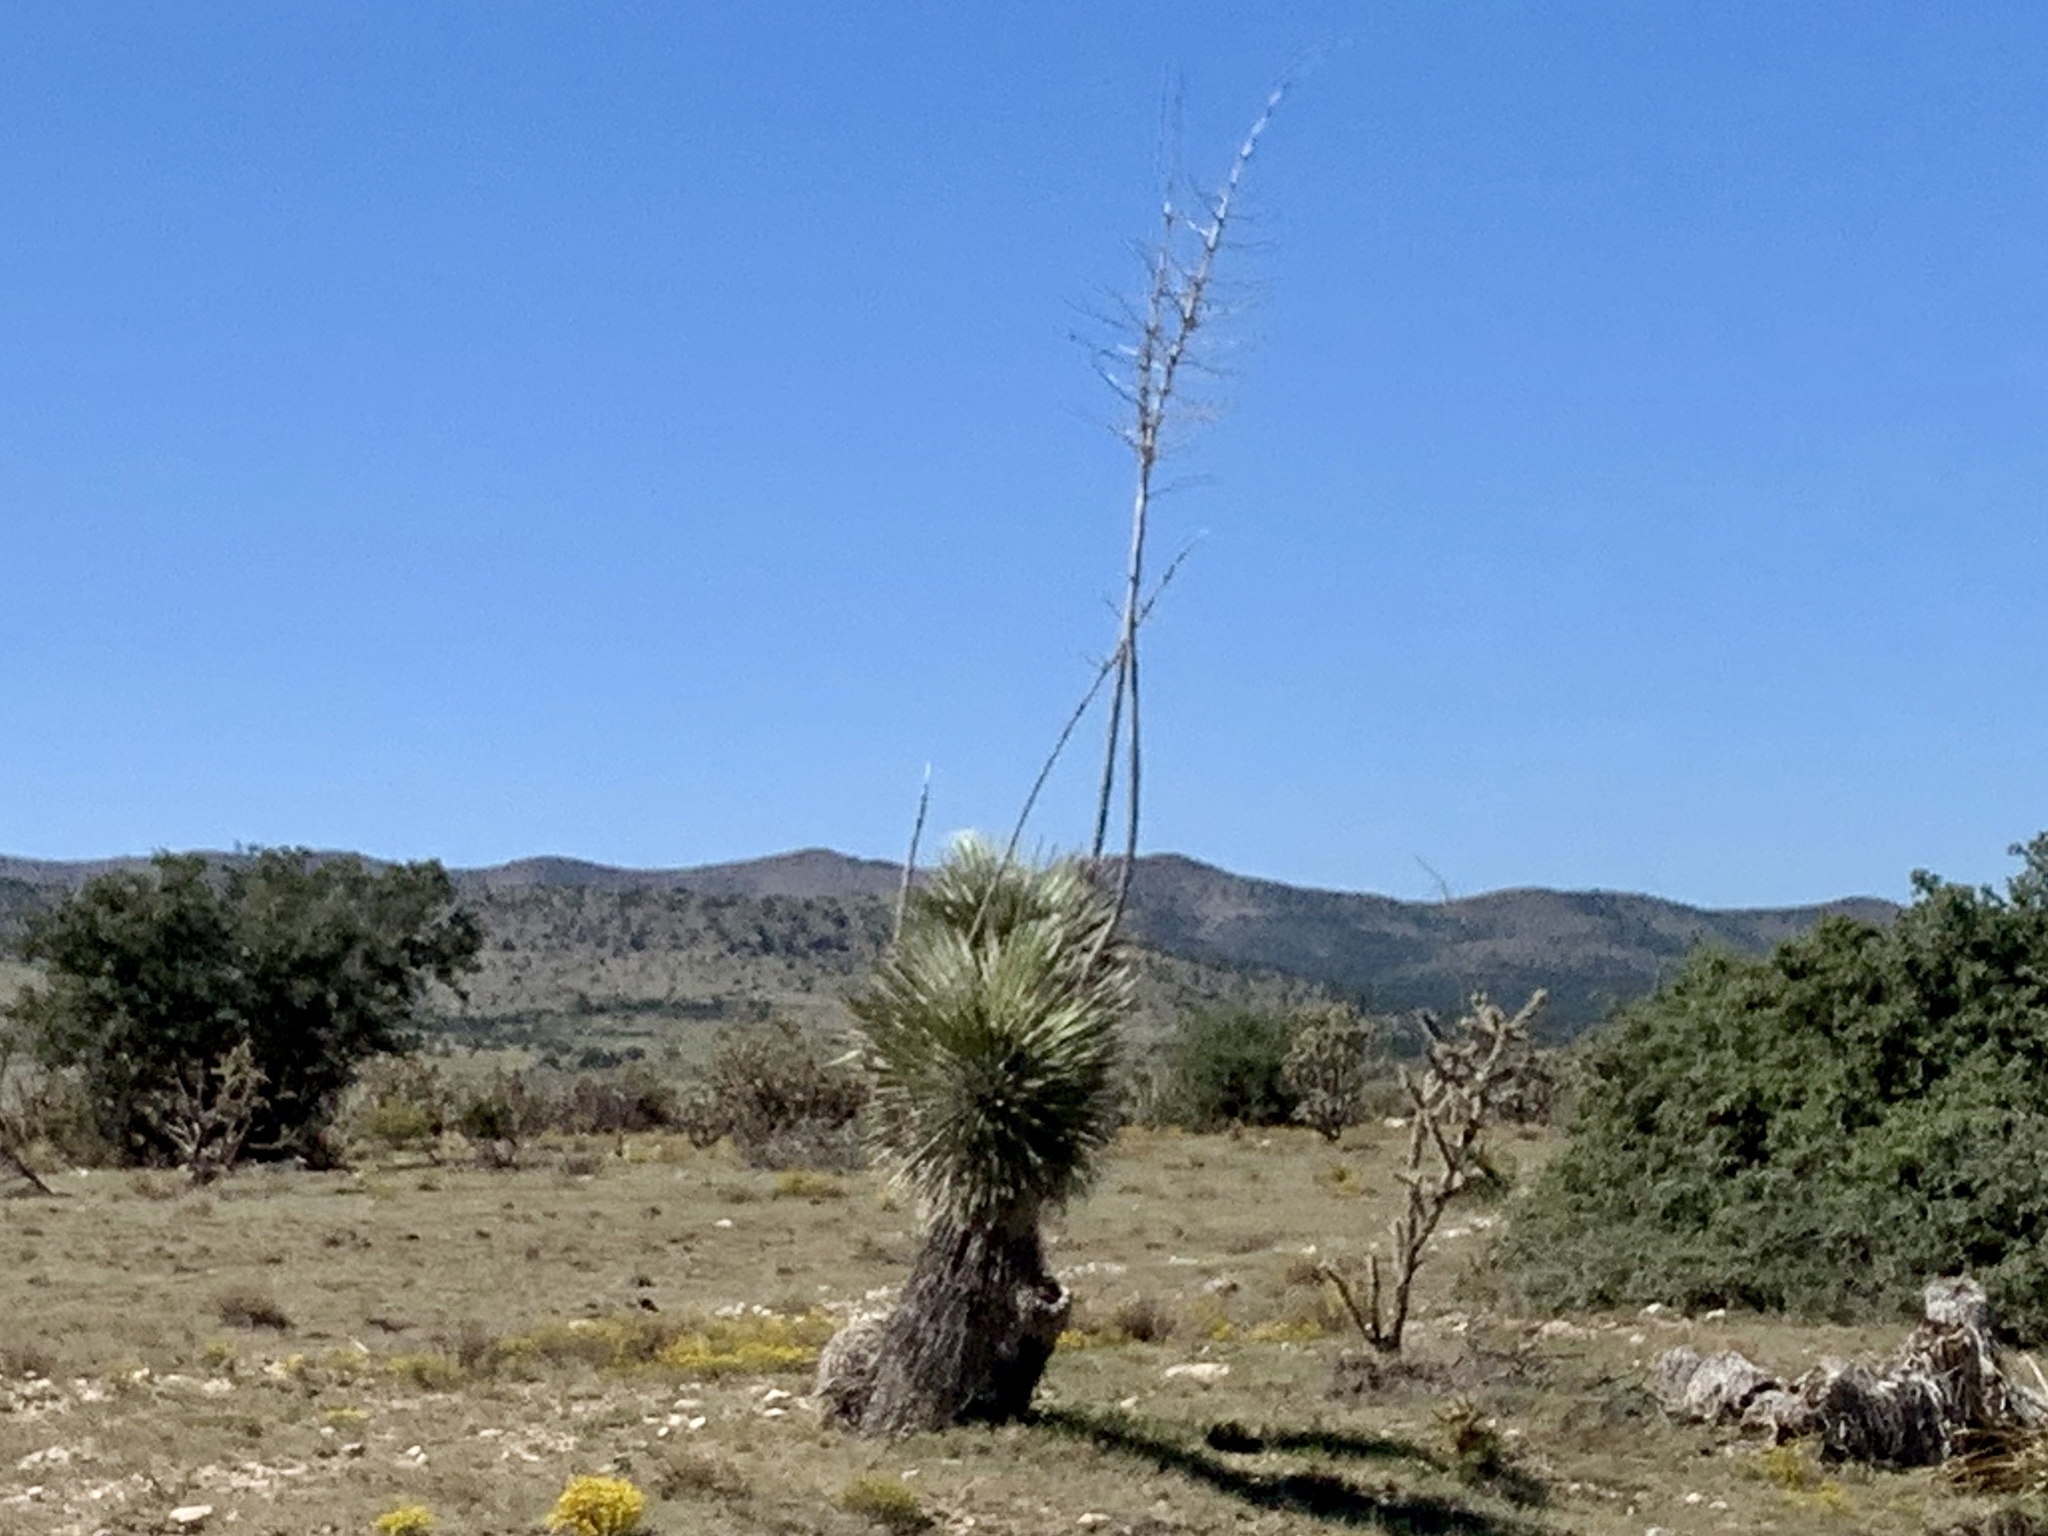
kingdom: Plantae
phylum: Tracheophyta
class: Liliopsida
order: Asparagales
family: Asparagaceae
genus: Yucca
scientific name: Yucca elata
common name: Palmella
